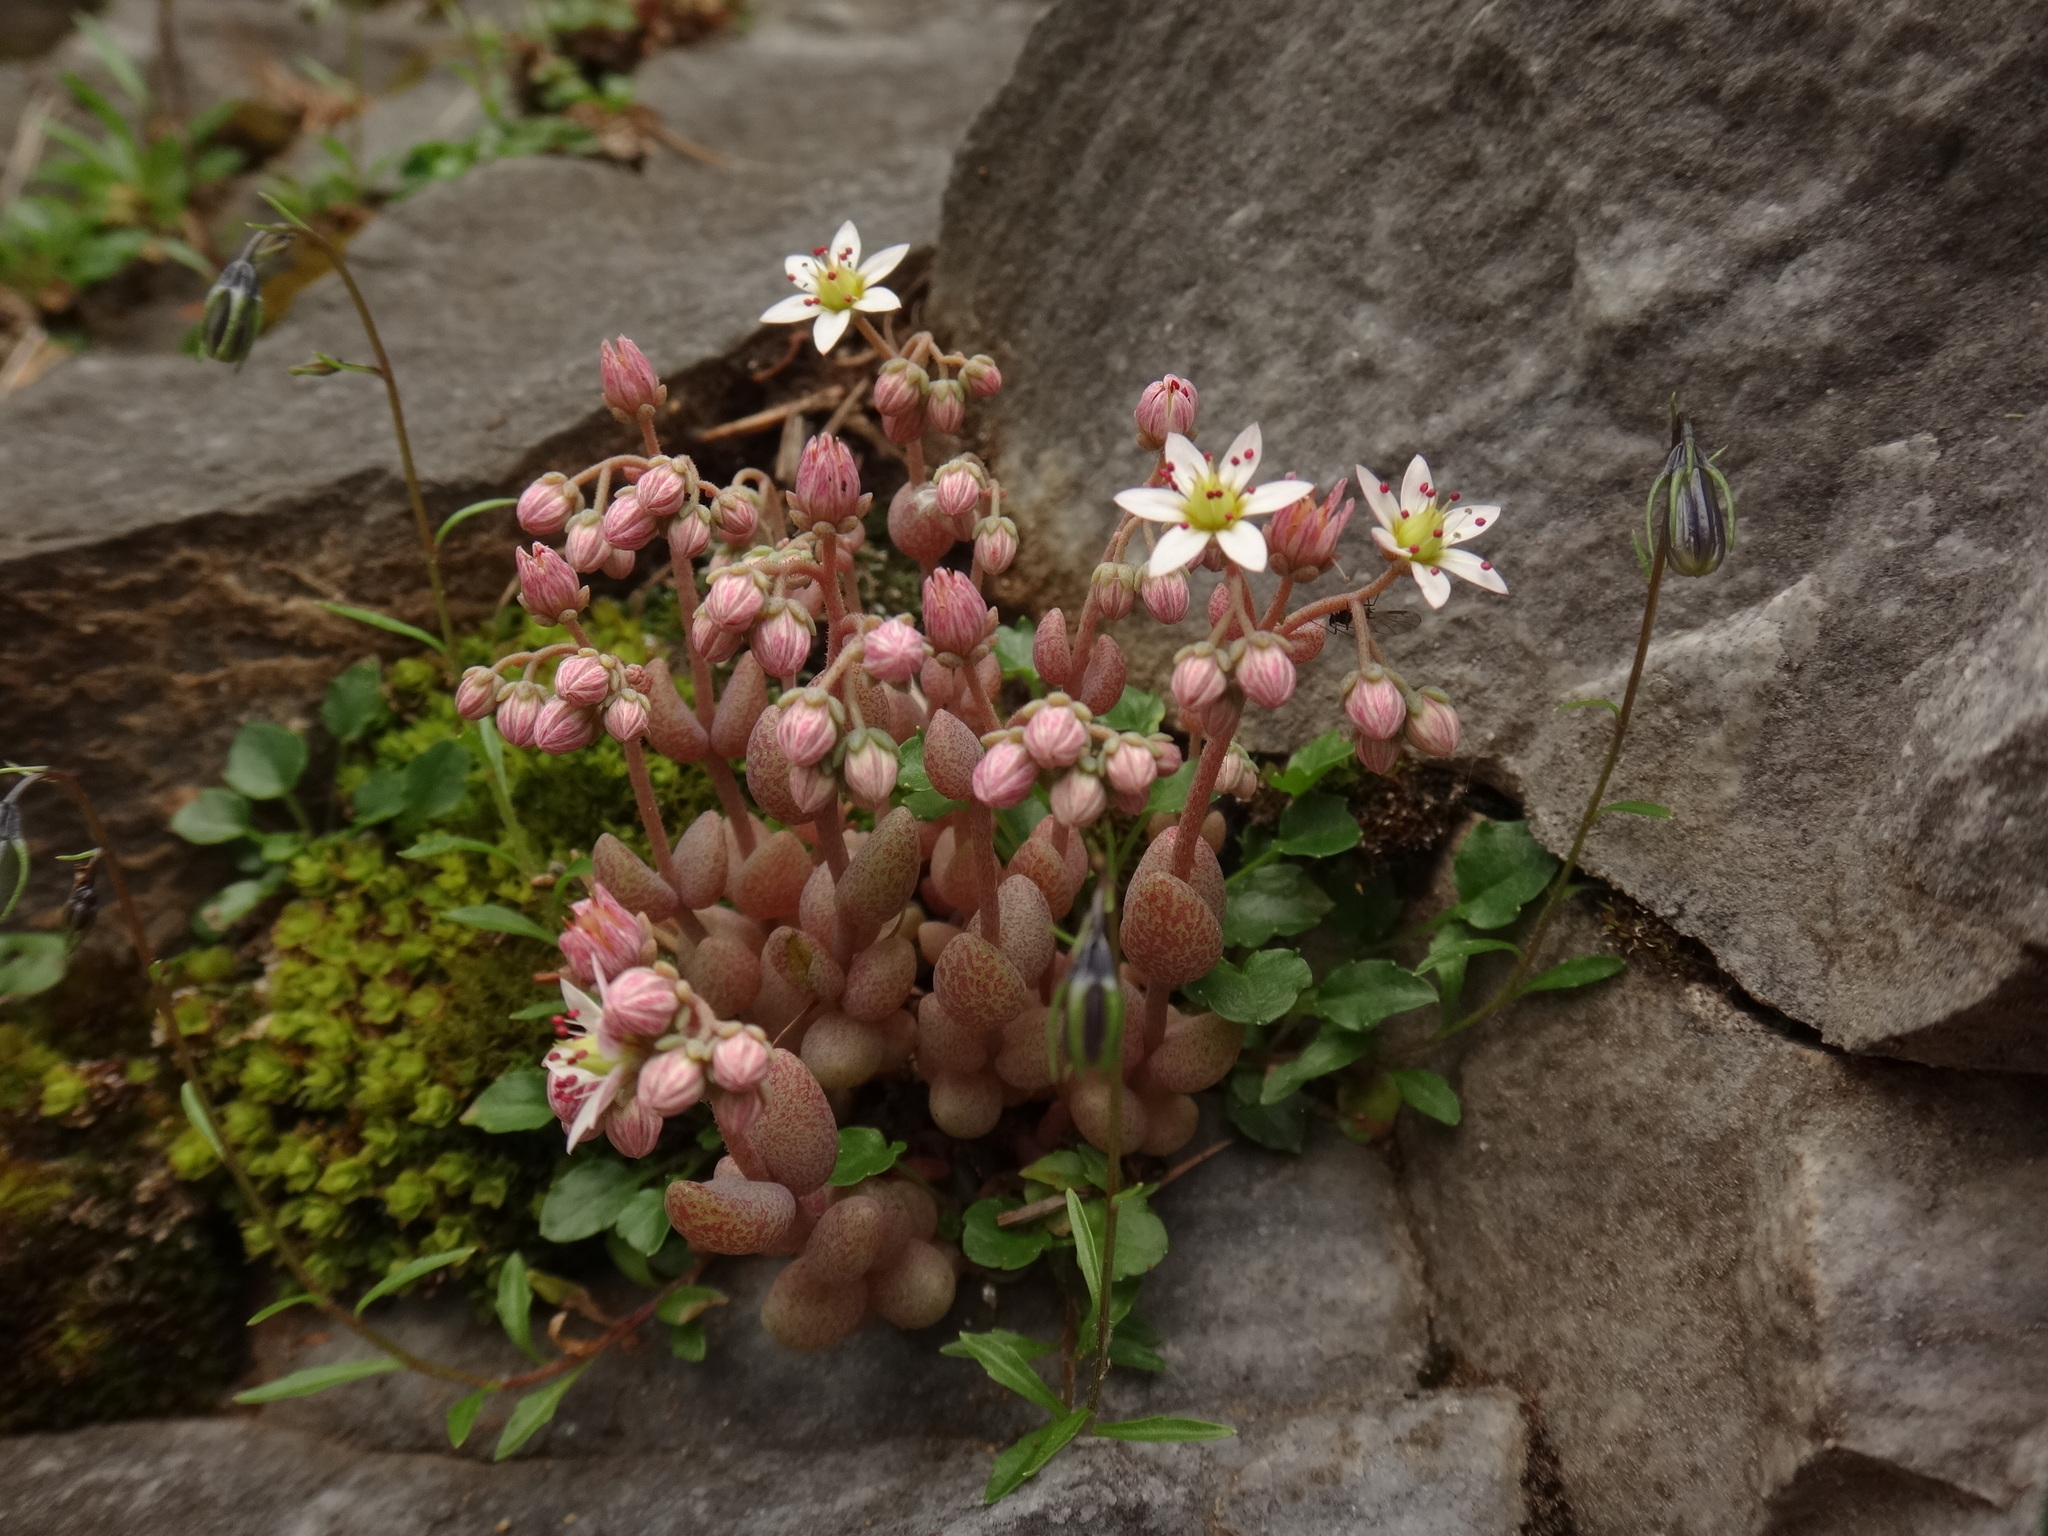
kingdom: Plantae
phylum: Tracheophyta
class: Magnoliopsida
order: Saxifragales
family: Crassulaceae
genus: Sedum
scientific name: Sedum dasyphyllum
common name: Thick-leaf stonecrop
